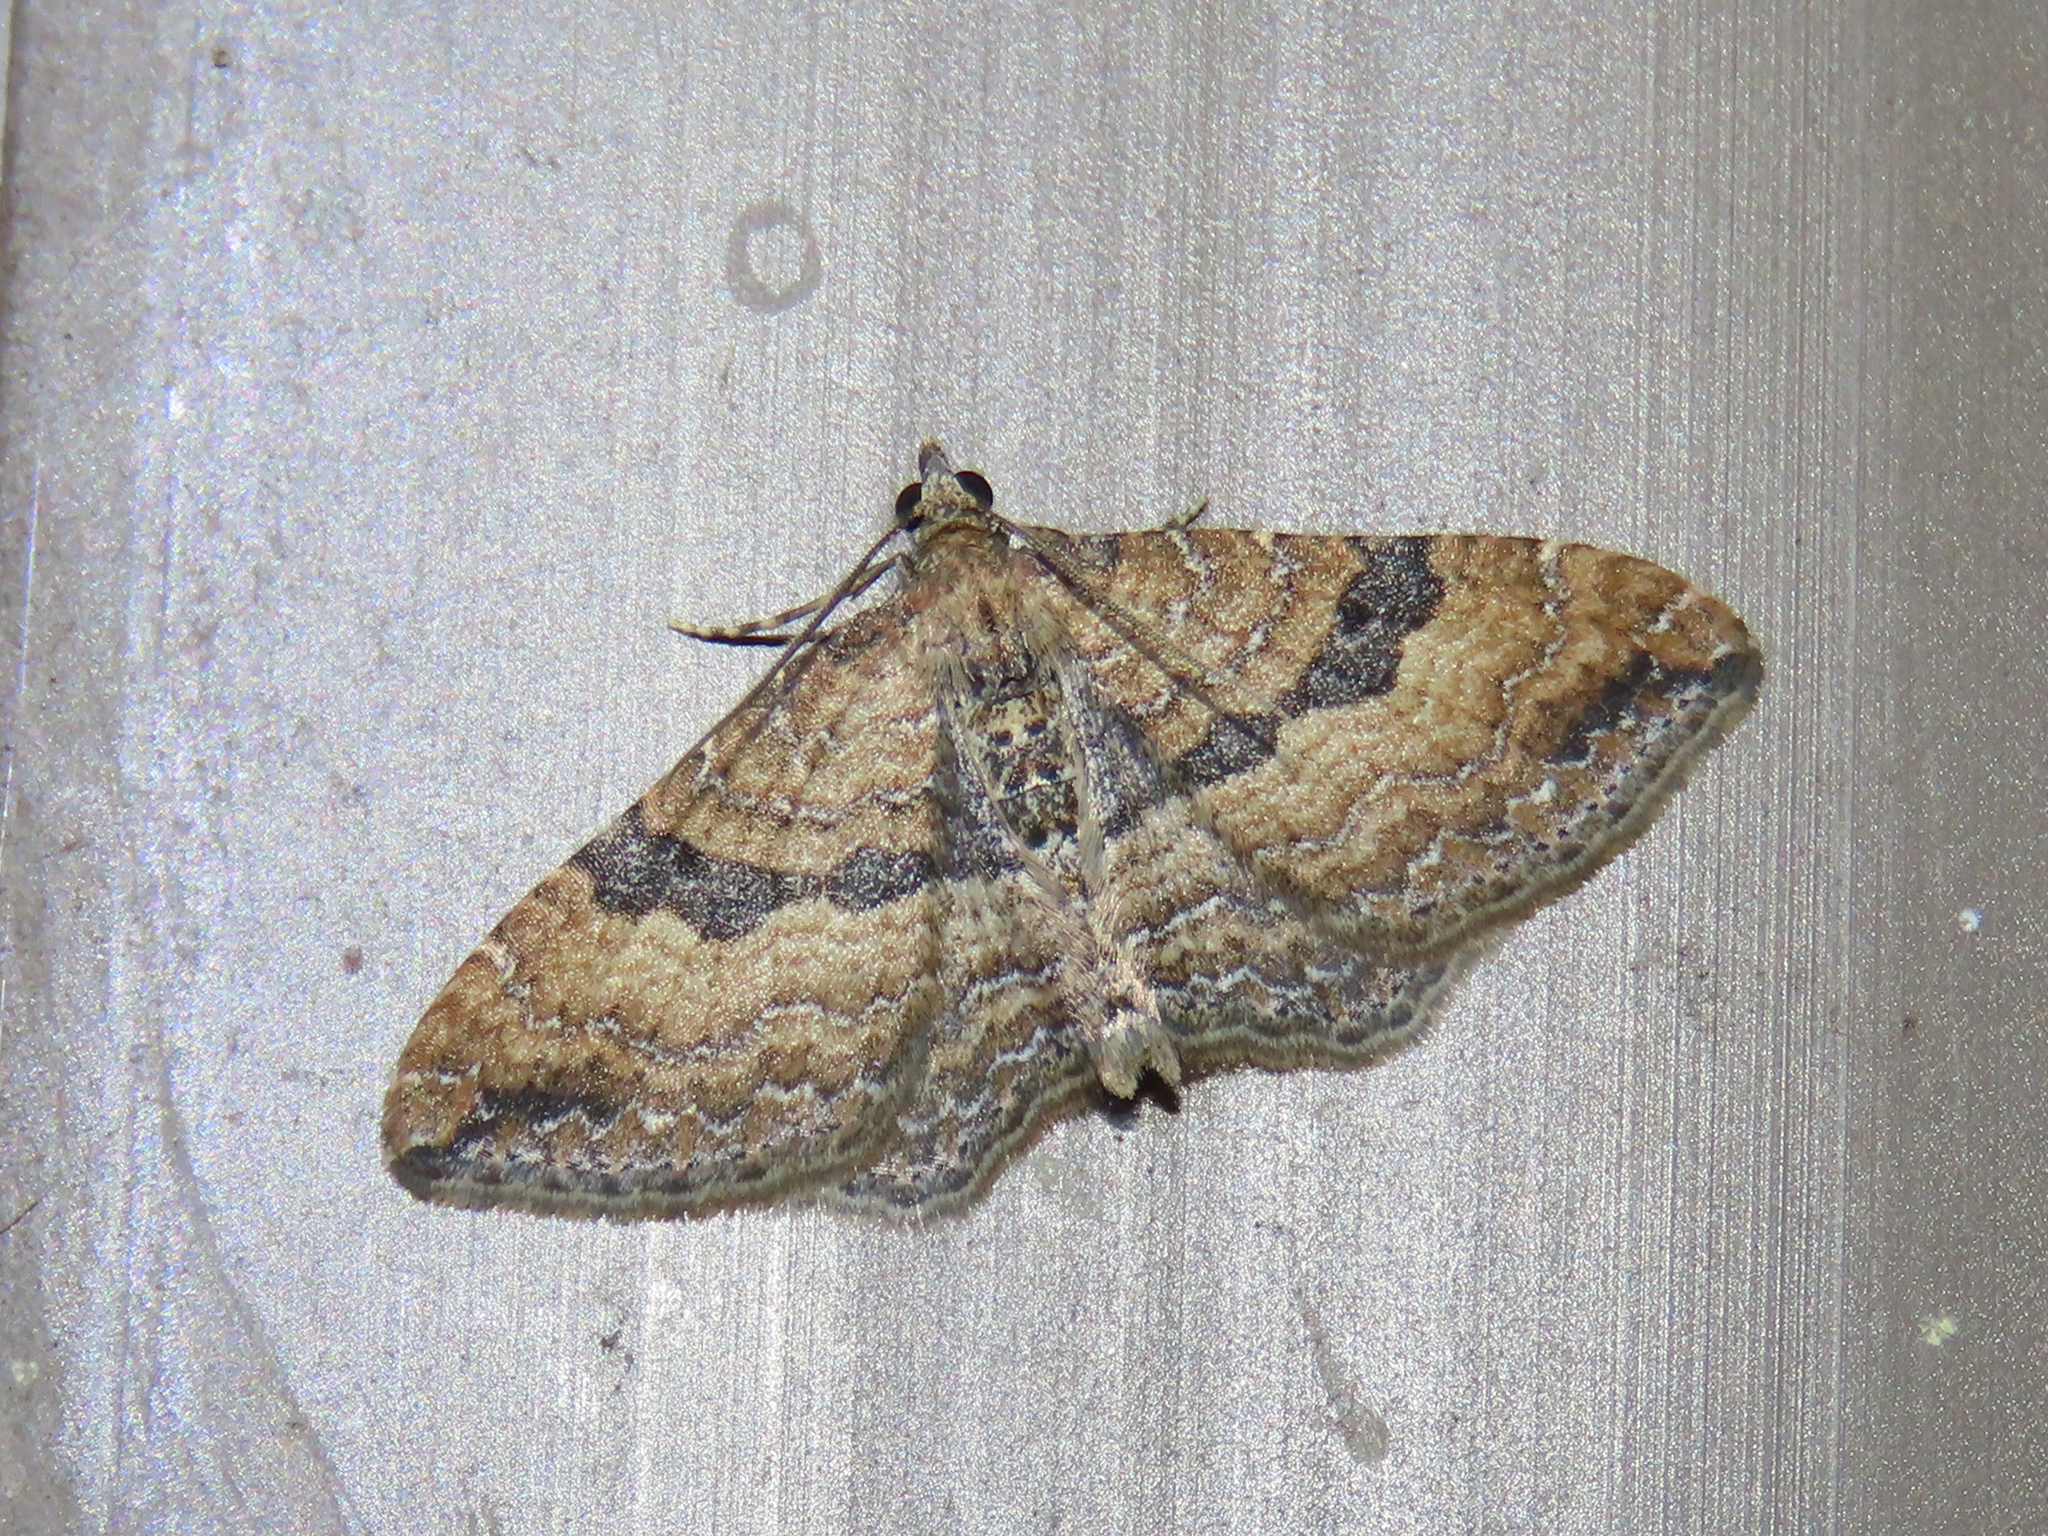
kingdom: Animalia
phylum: Arthropoda
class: Insecta
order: Lepidoptera
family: Geometridae
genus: Orthonama
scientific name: Orthonama obstipata
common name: The gem
